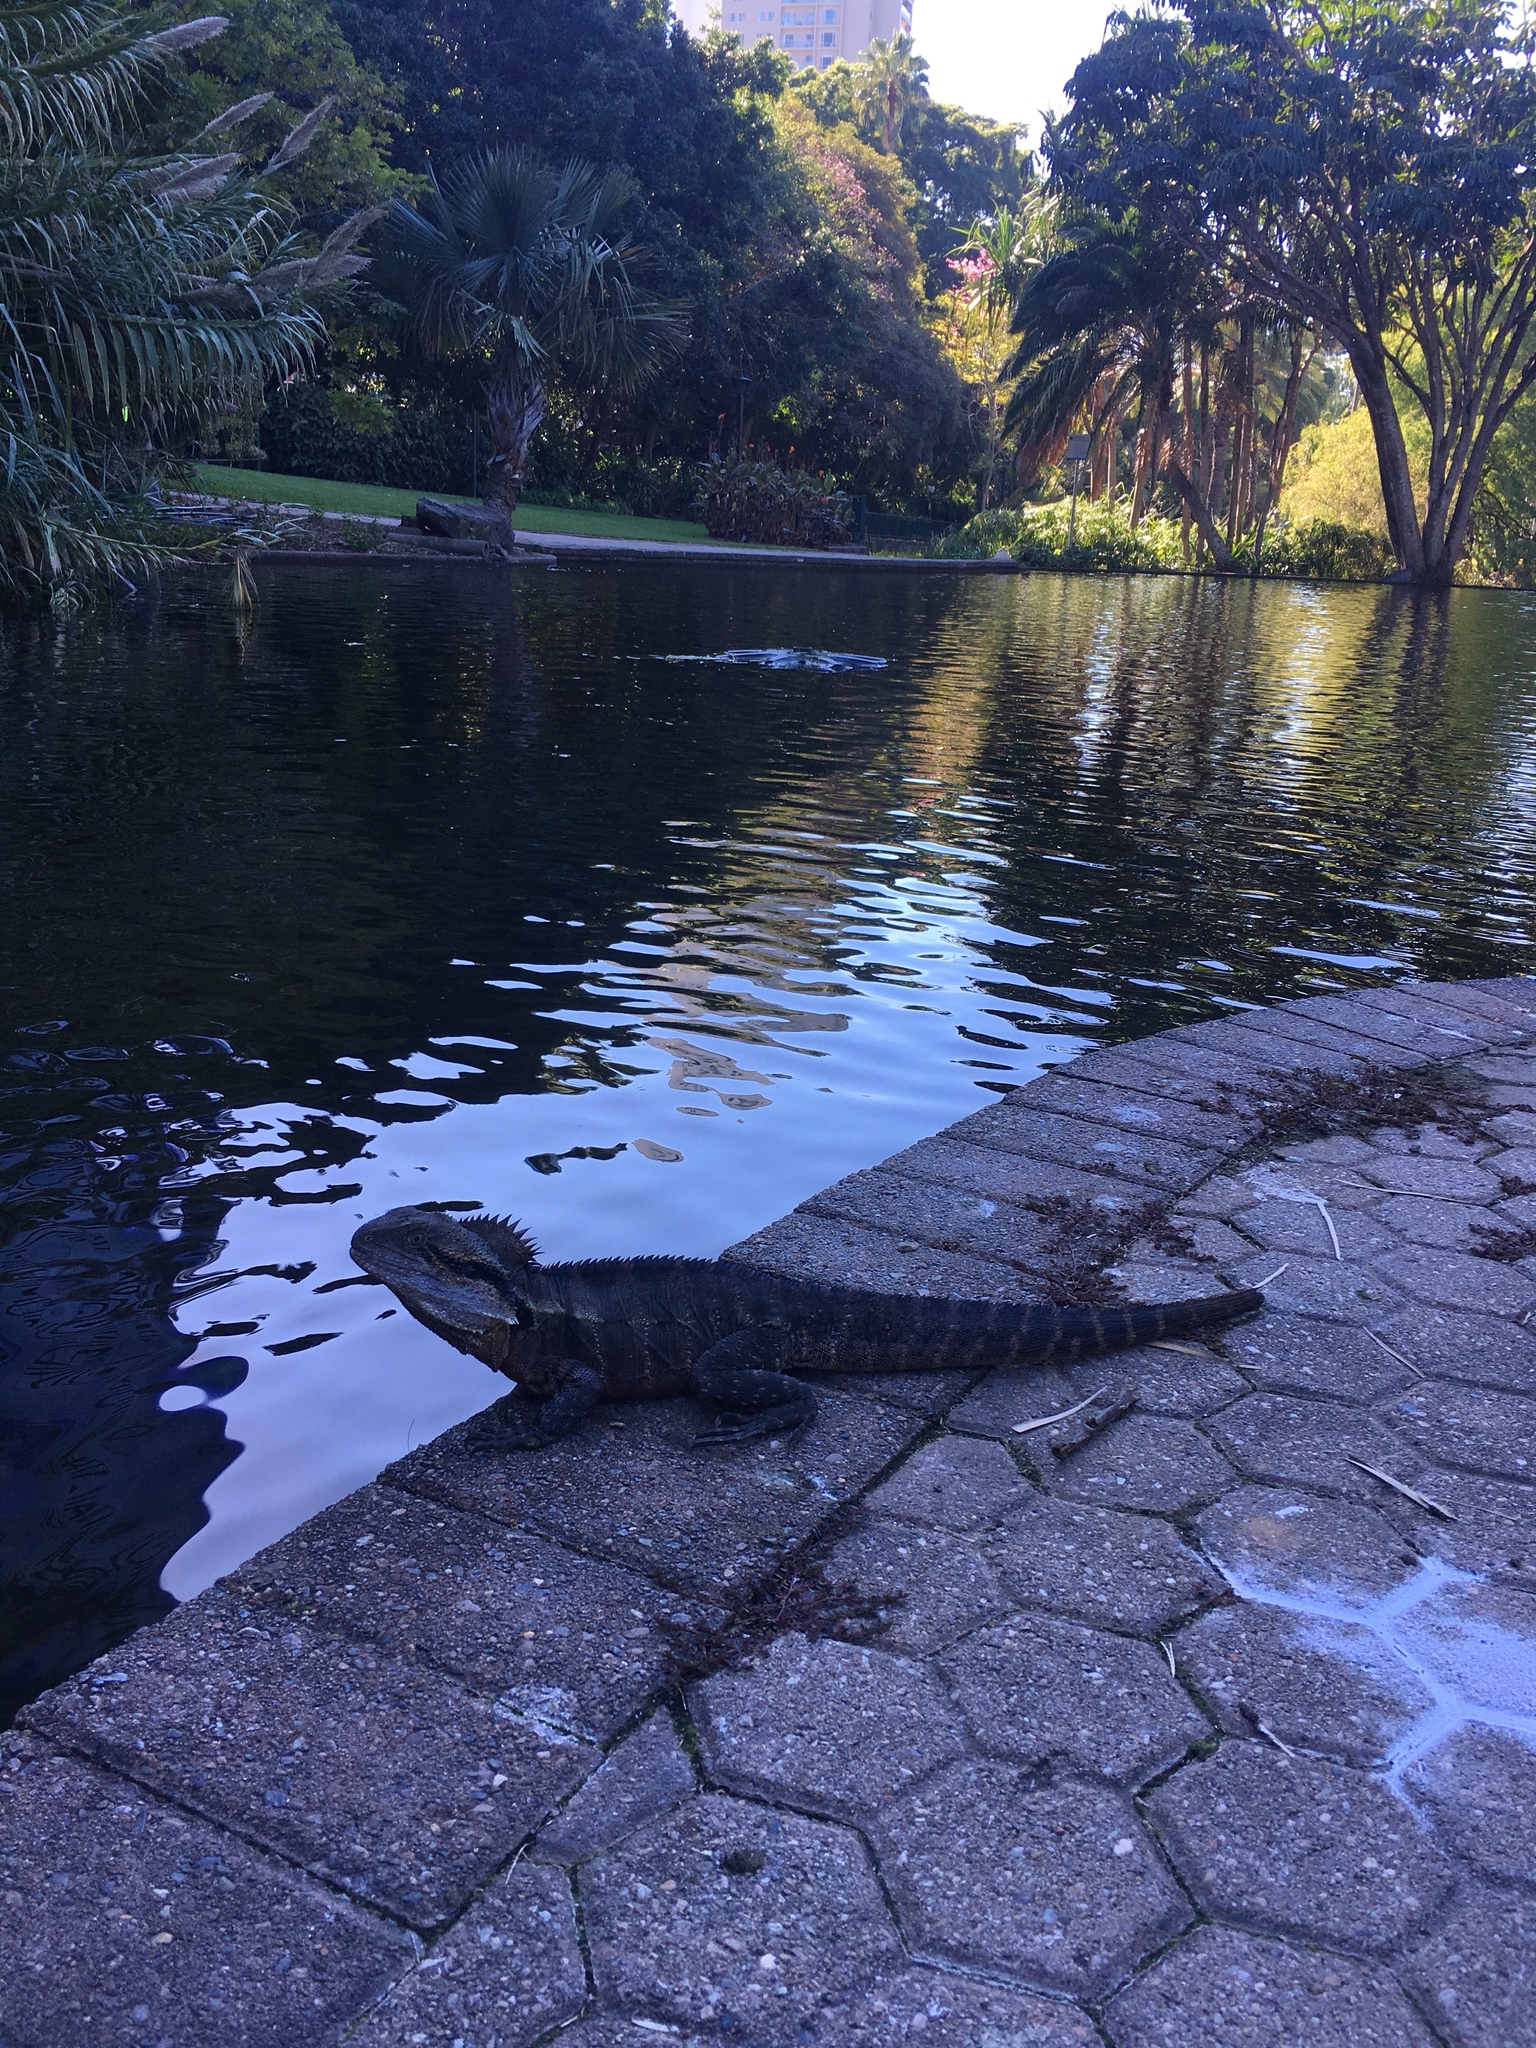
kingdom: Animalia
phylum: Chordata
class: Squamata
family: Agamidae
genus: Intellagama
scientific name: Intellagama lesueurii
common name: Eastern water dragon
